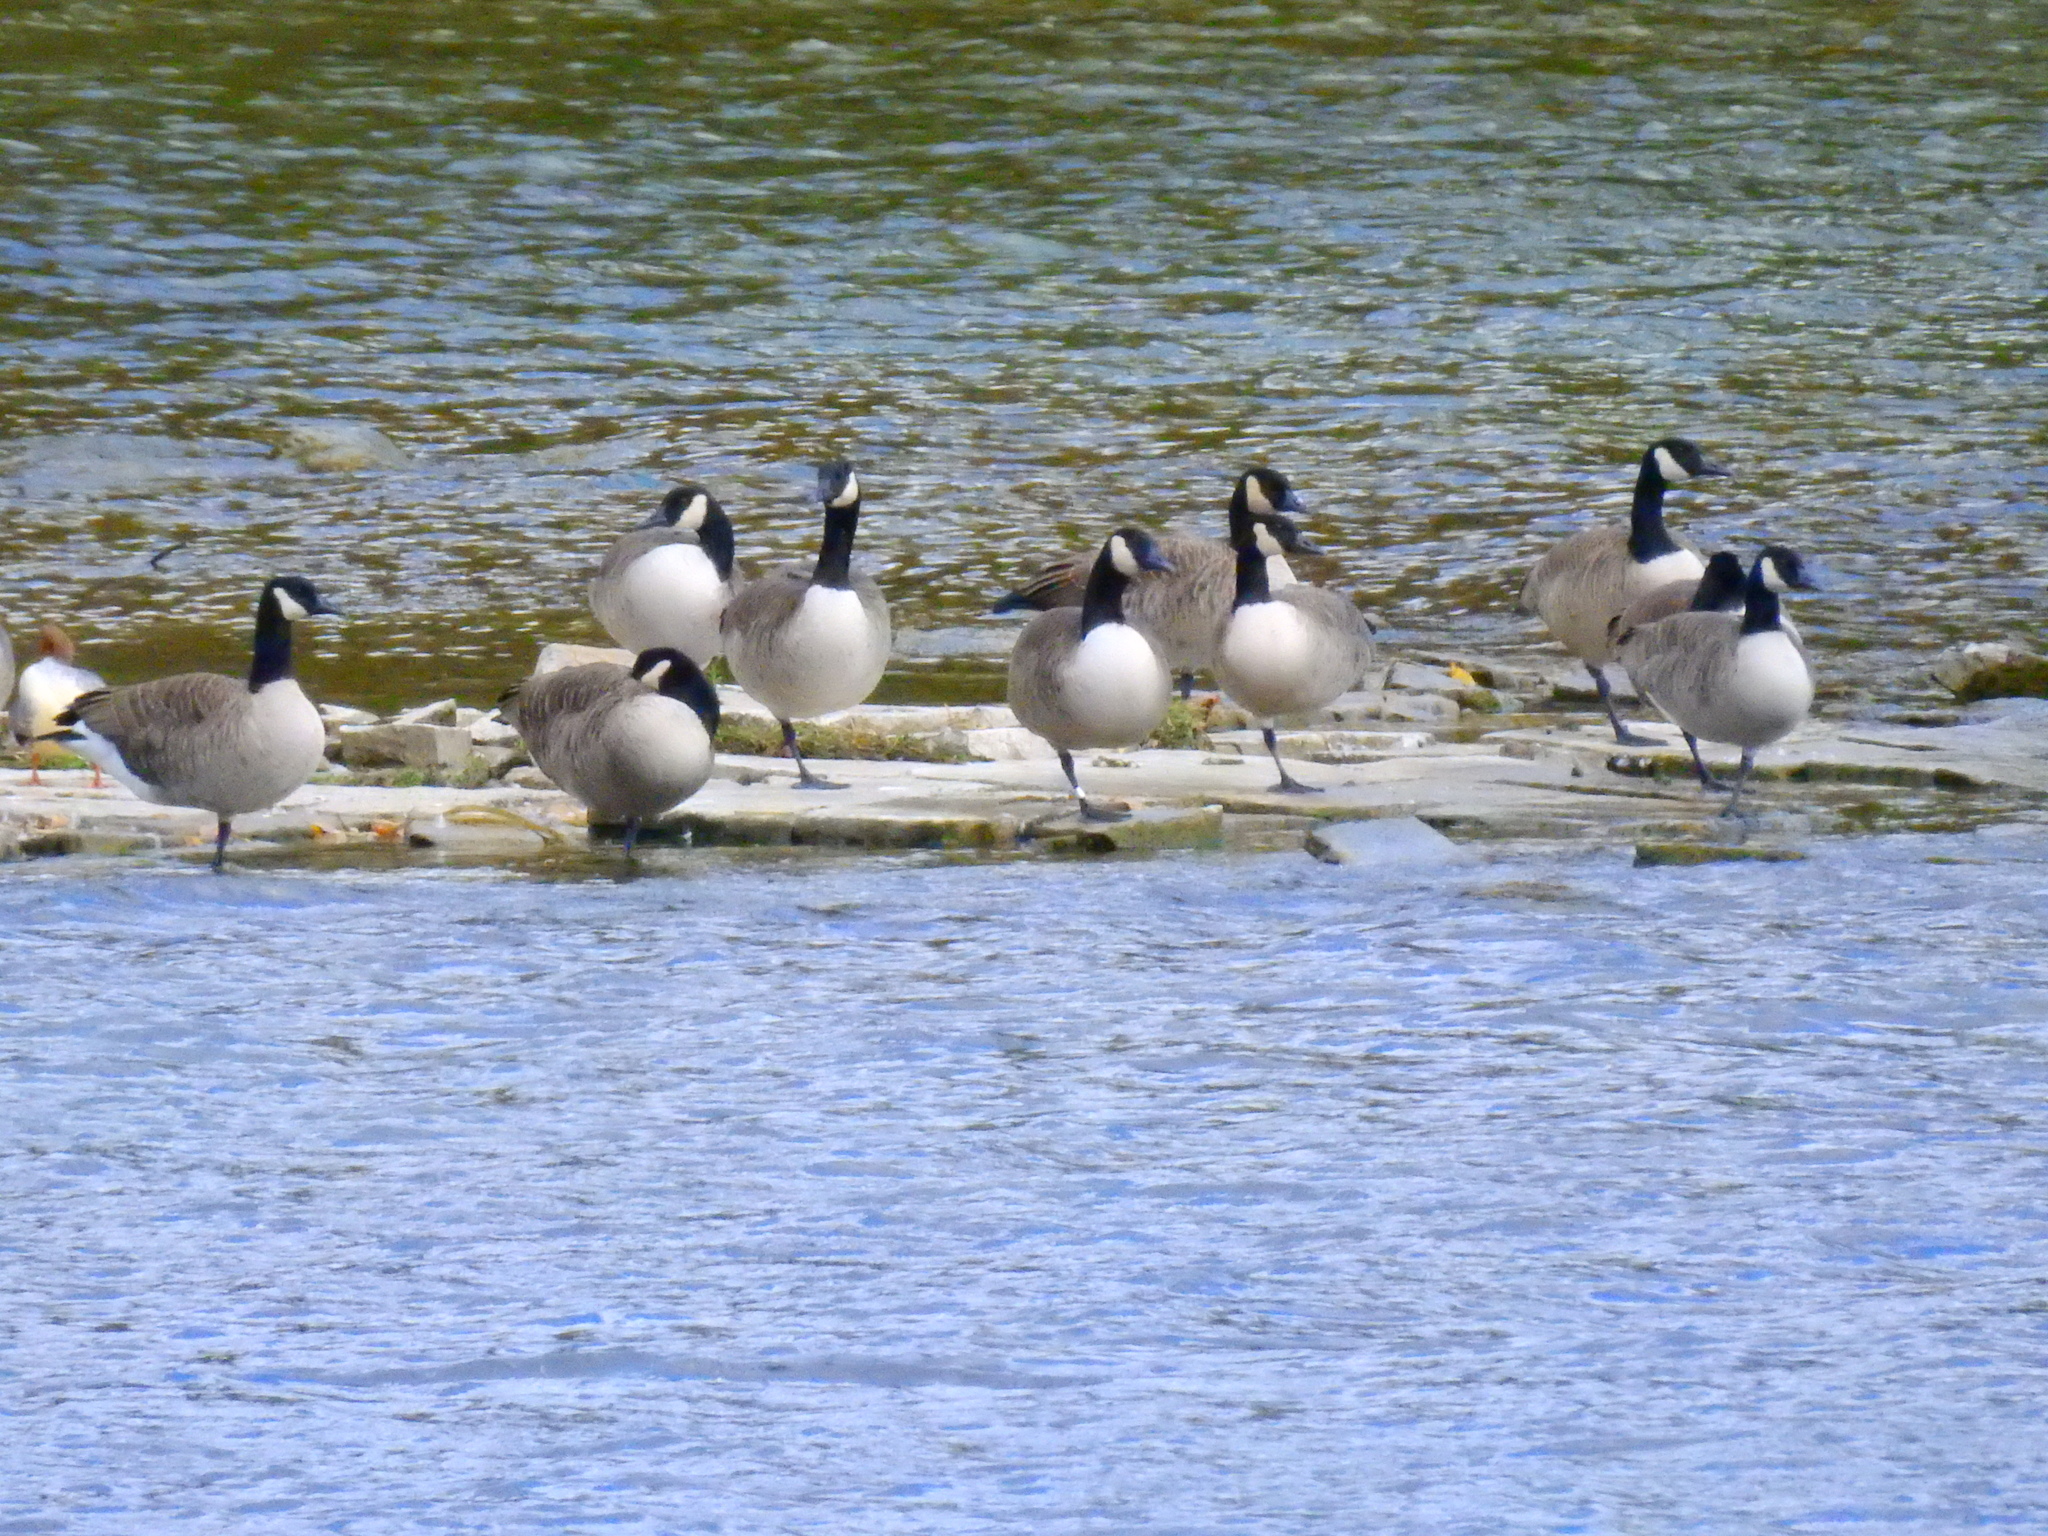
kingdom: Animalia
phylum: Chordata
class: Aves
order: Anseriformes
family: Anatidae
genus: Branta
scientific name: Branta canadensis
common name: Canada goose
